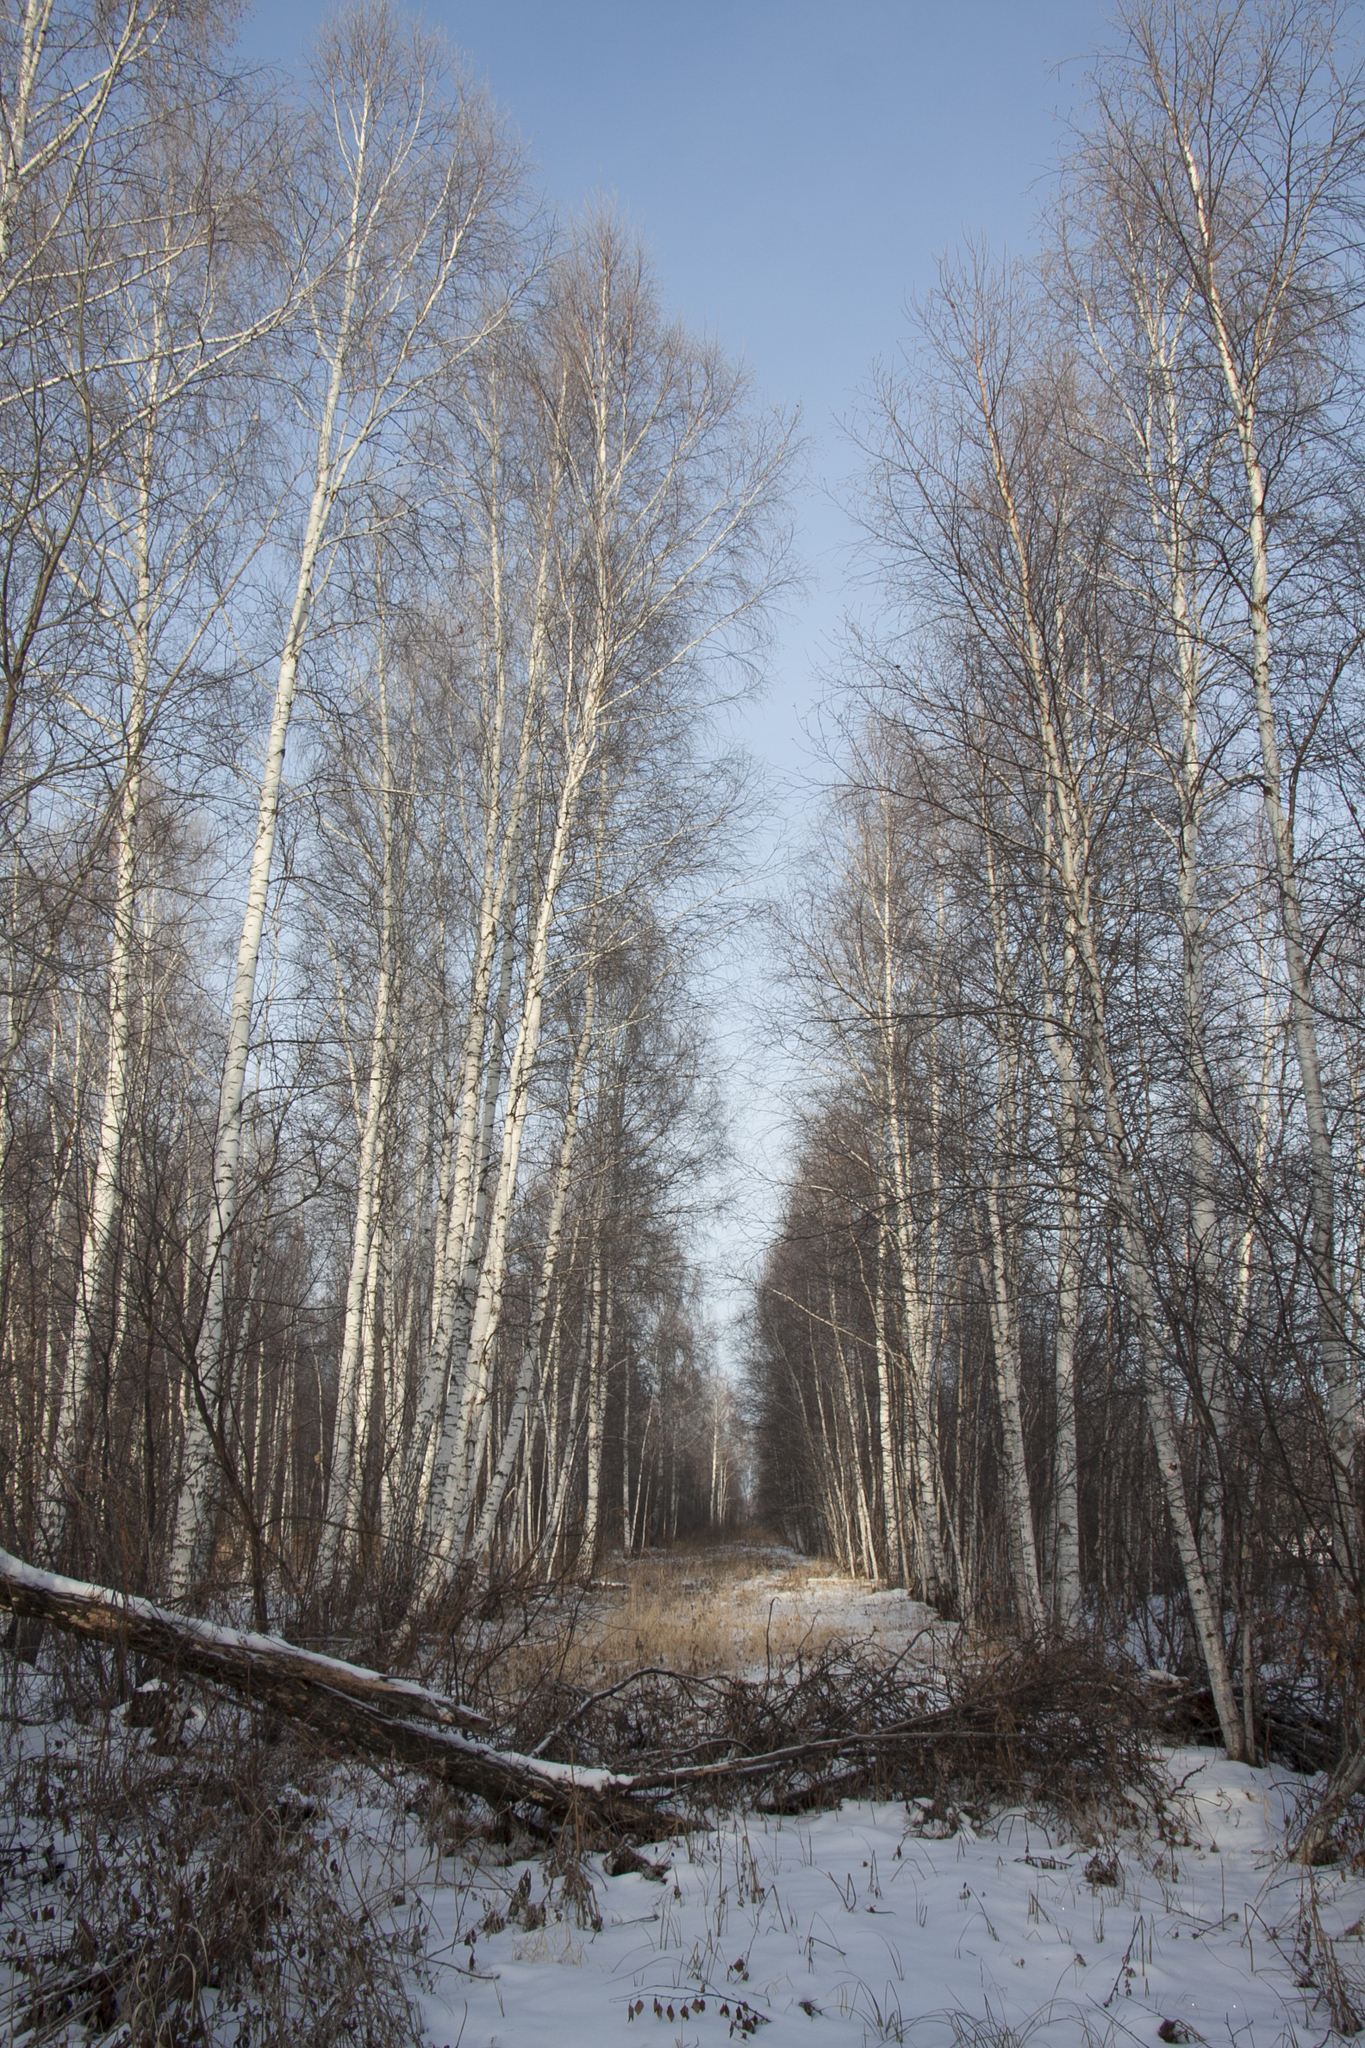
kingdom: Plantae
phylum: Tracheophyta
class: Magnoliopsida
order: Fagales
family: Betulaceae
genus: Betula
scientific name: Betula pendula
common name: Silver birch
